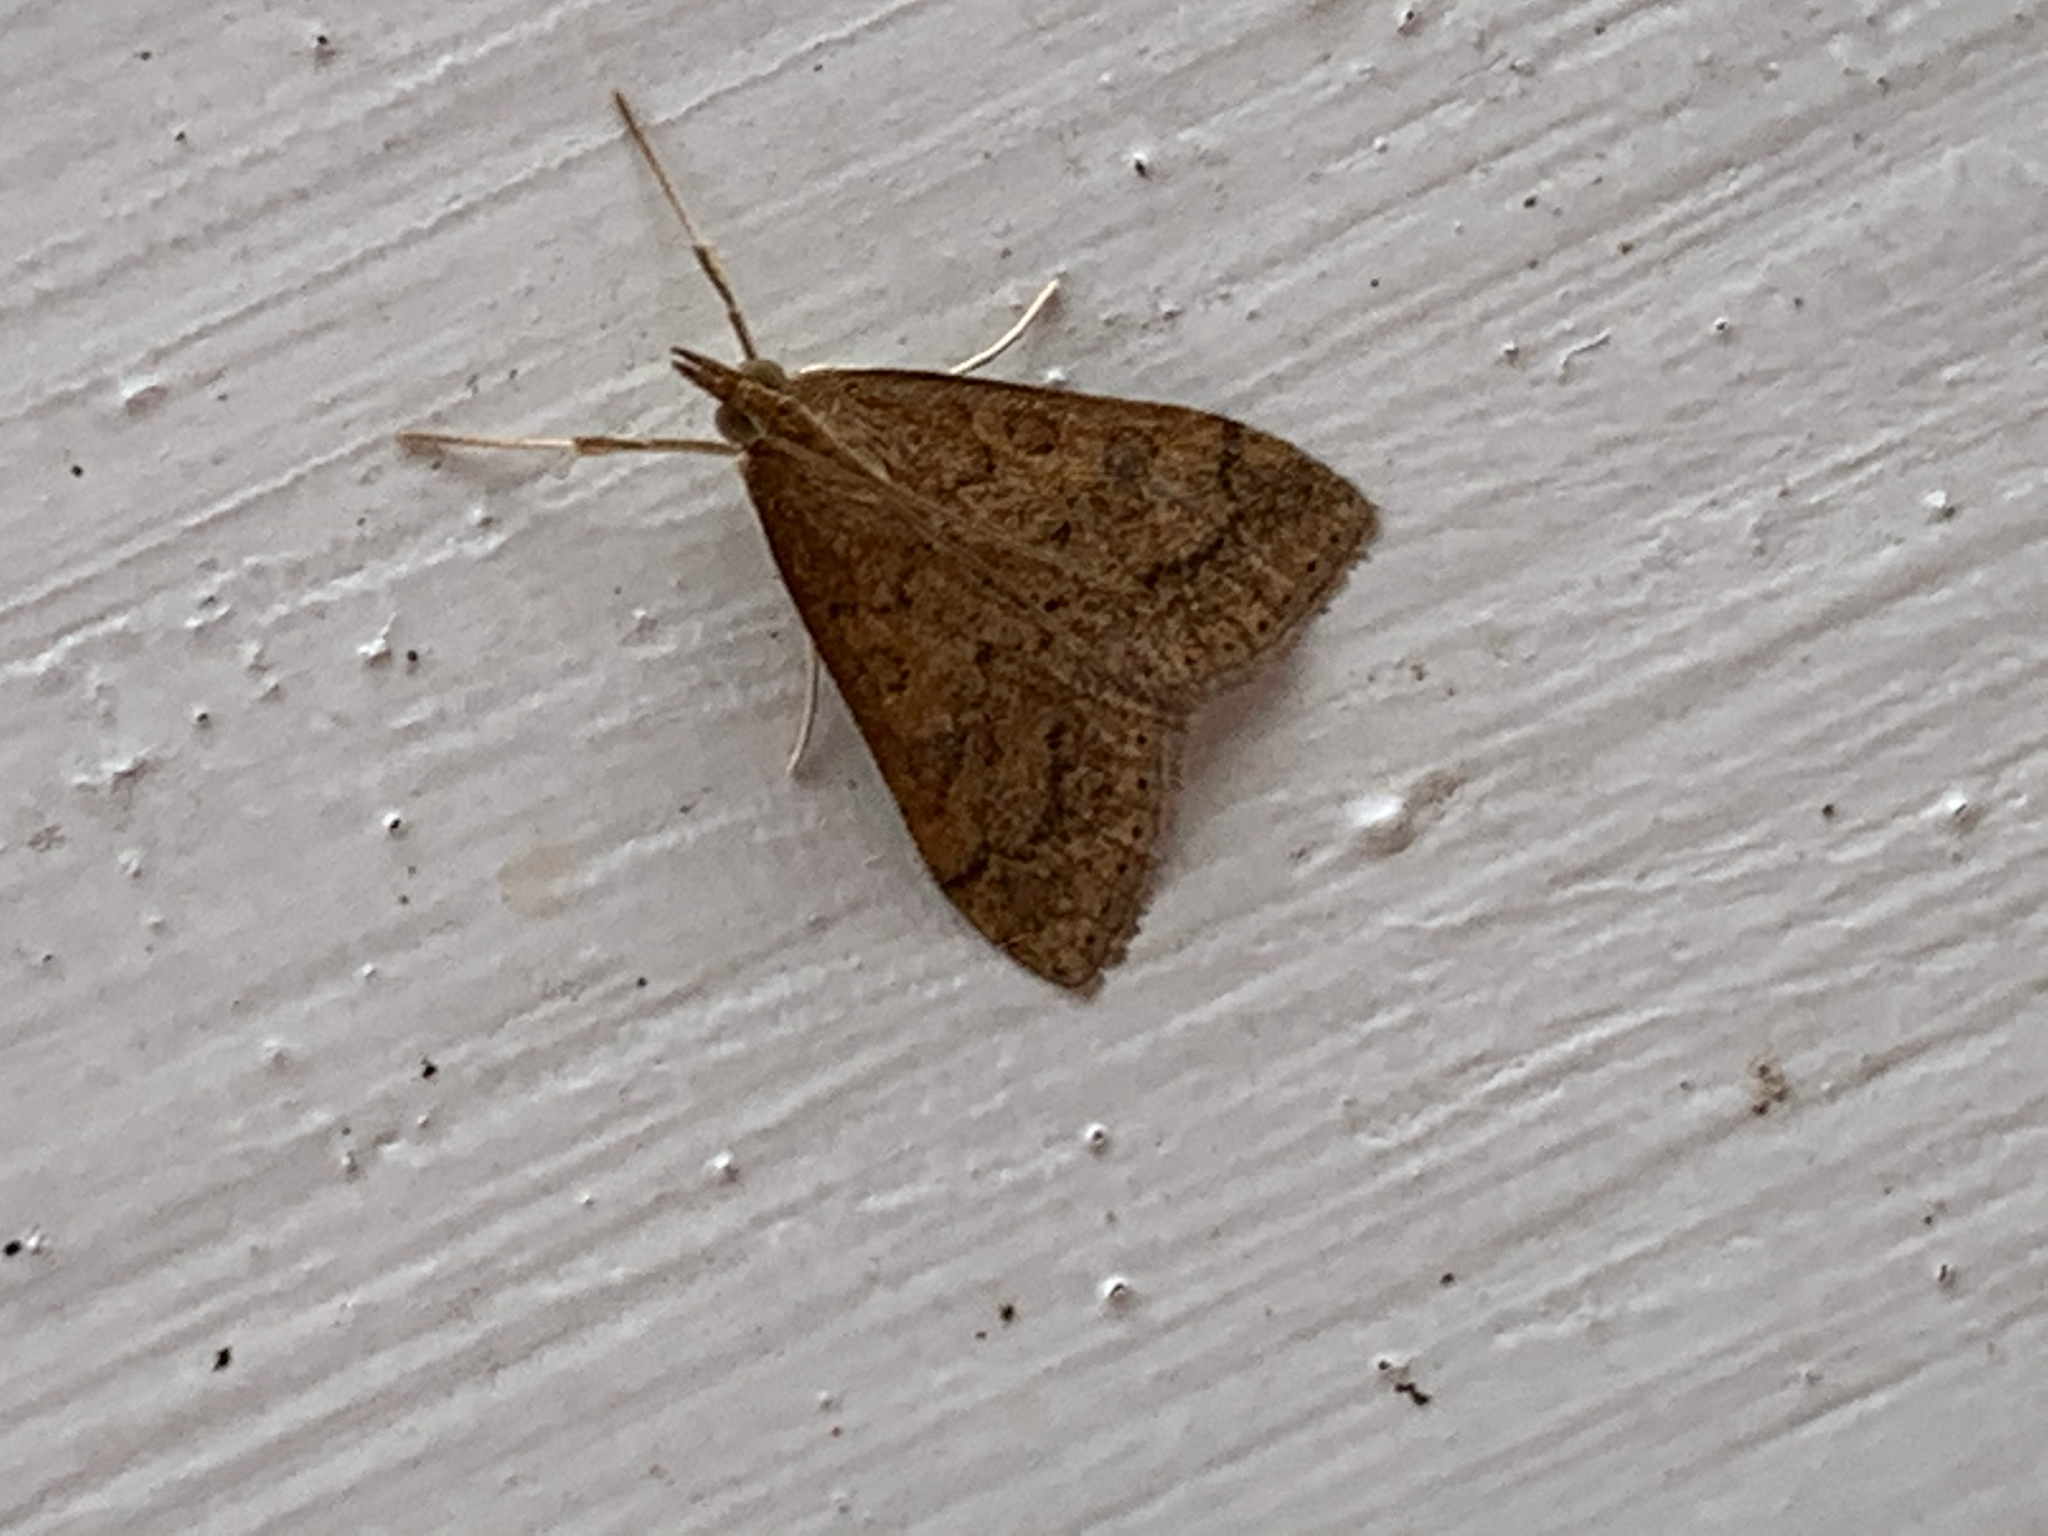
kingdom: Animalia
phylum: Arthropoda
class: Insecta
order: Lepidoptera
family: Crambidae
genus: Udea
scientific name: Udea rubigalis
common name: Celery leaftier moth
